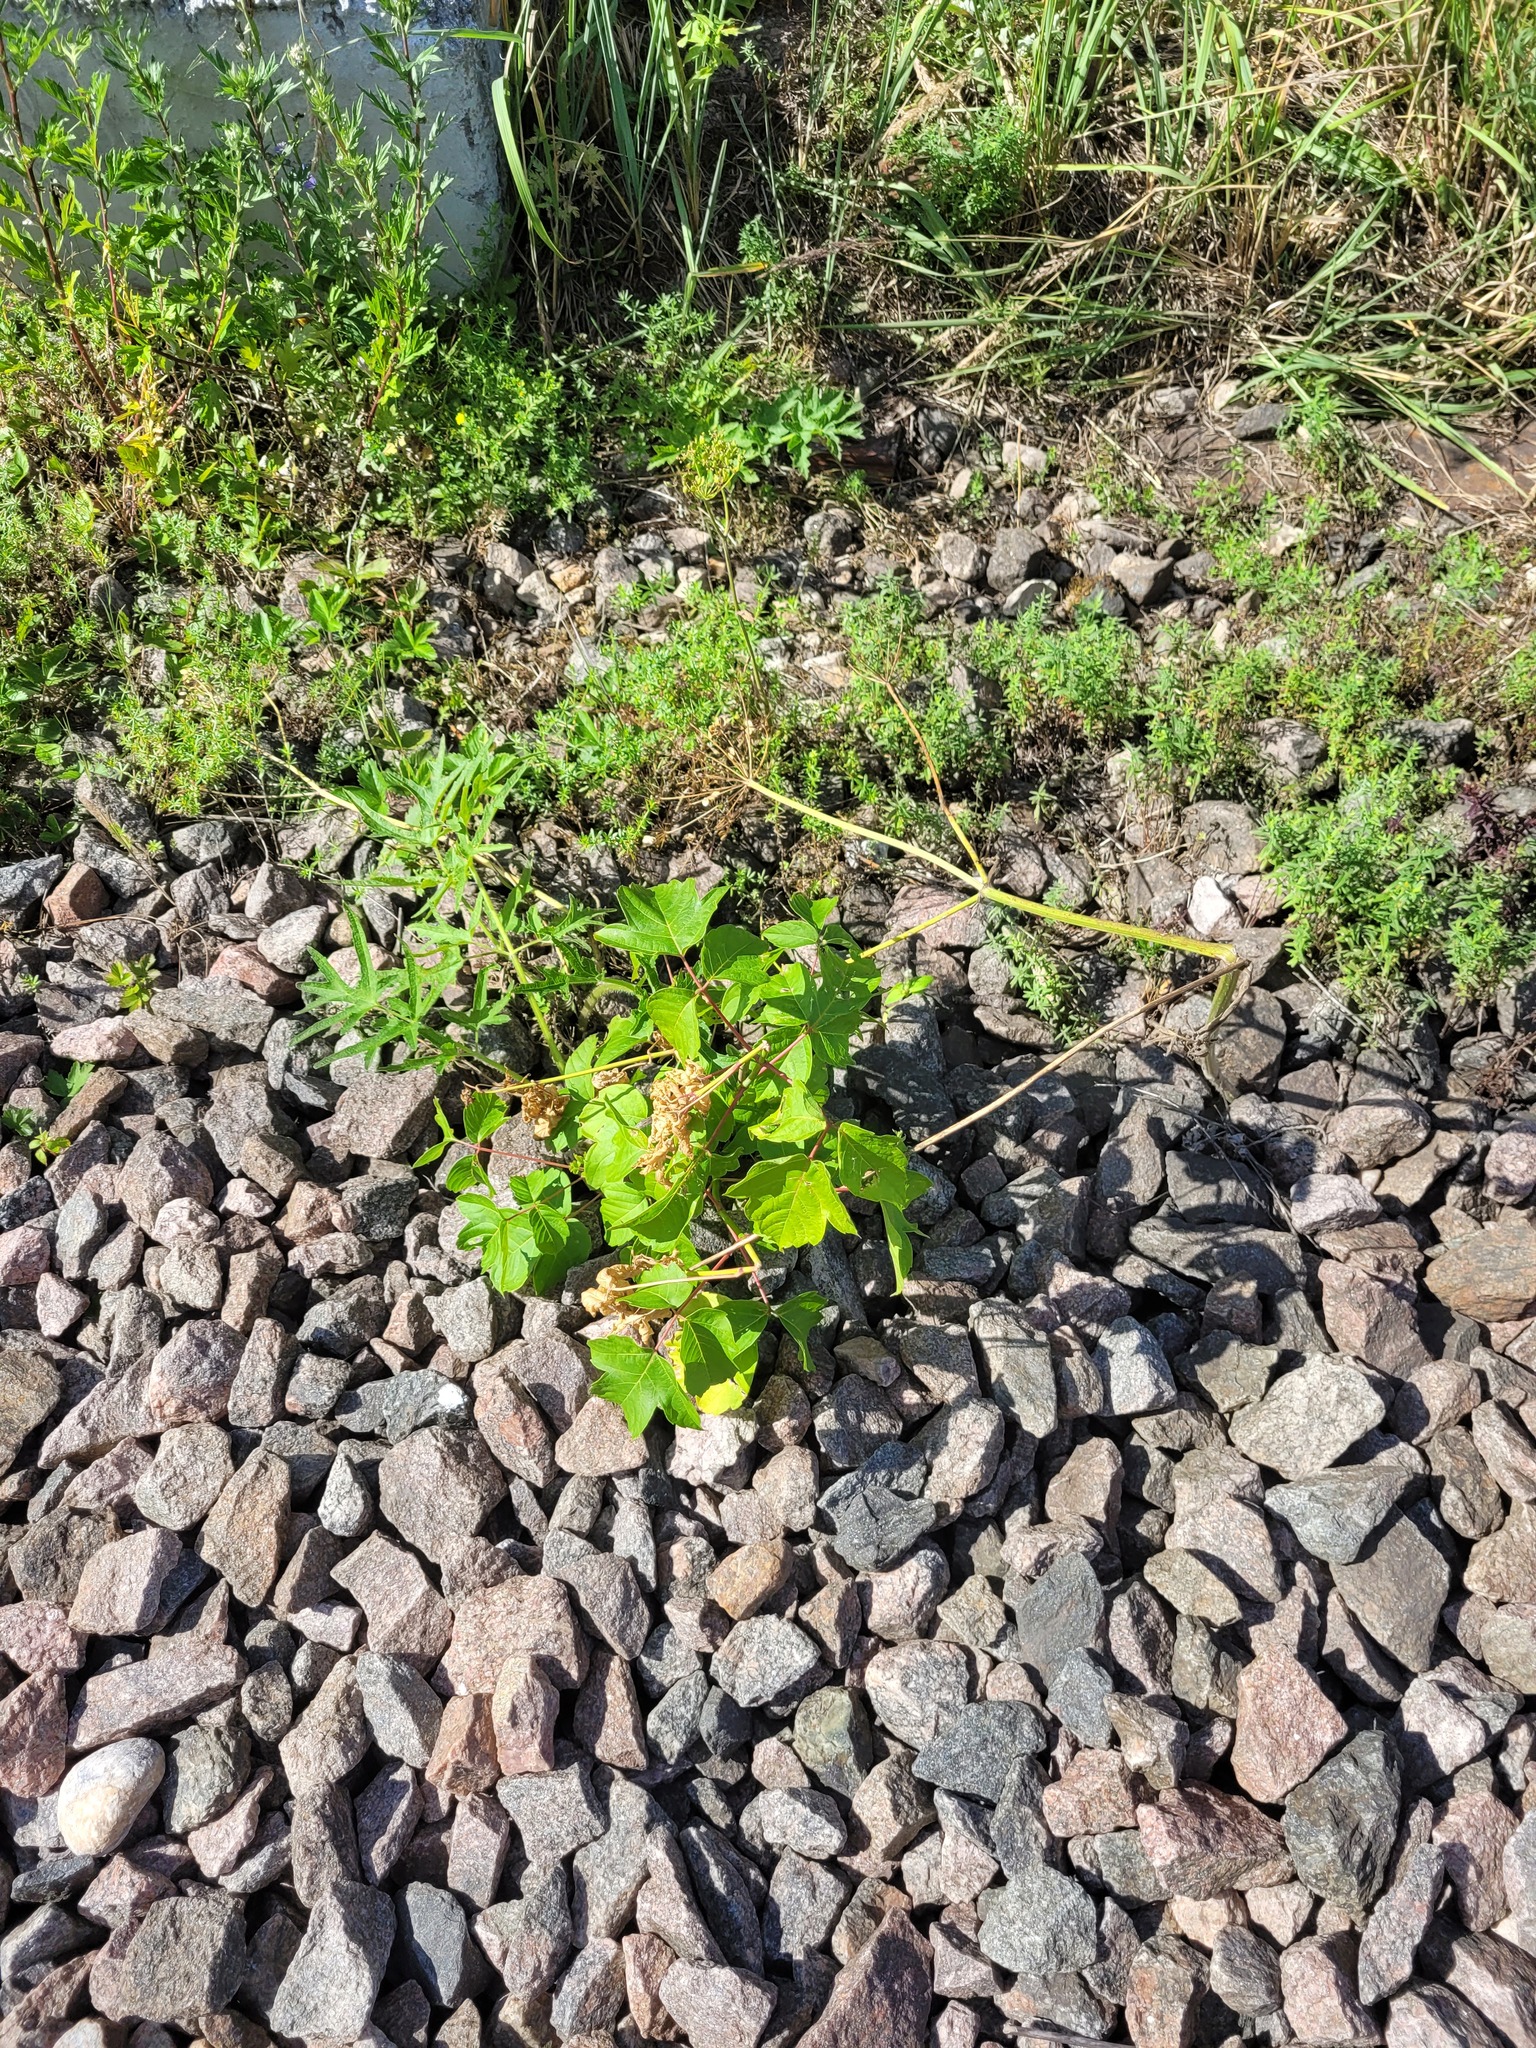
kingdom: Plantae
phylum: Tracheophyta
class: Magnoliopsida
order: Sapindales
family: Sapindaceae
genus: Acer
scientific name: Acer negundo
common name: Ashleaf maple
